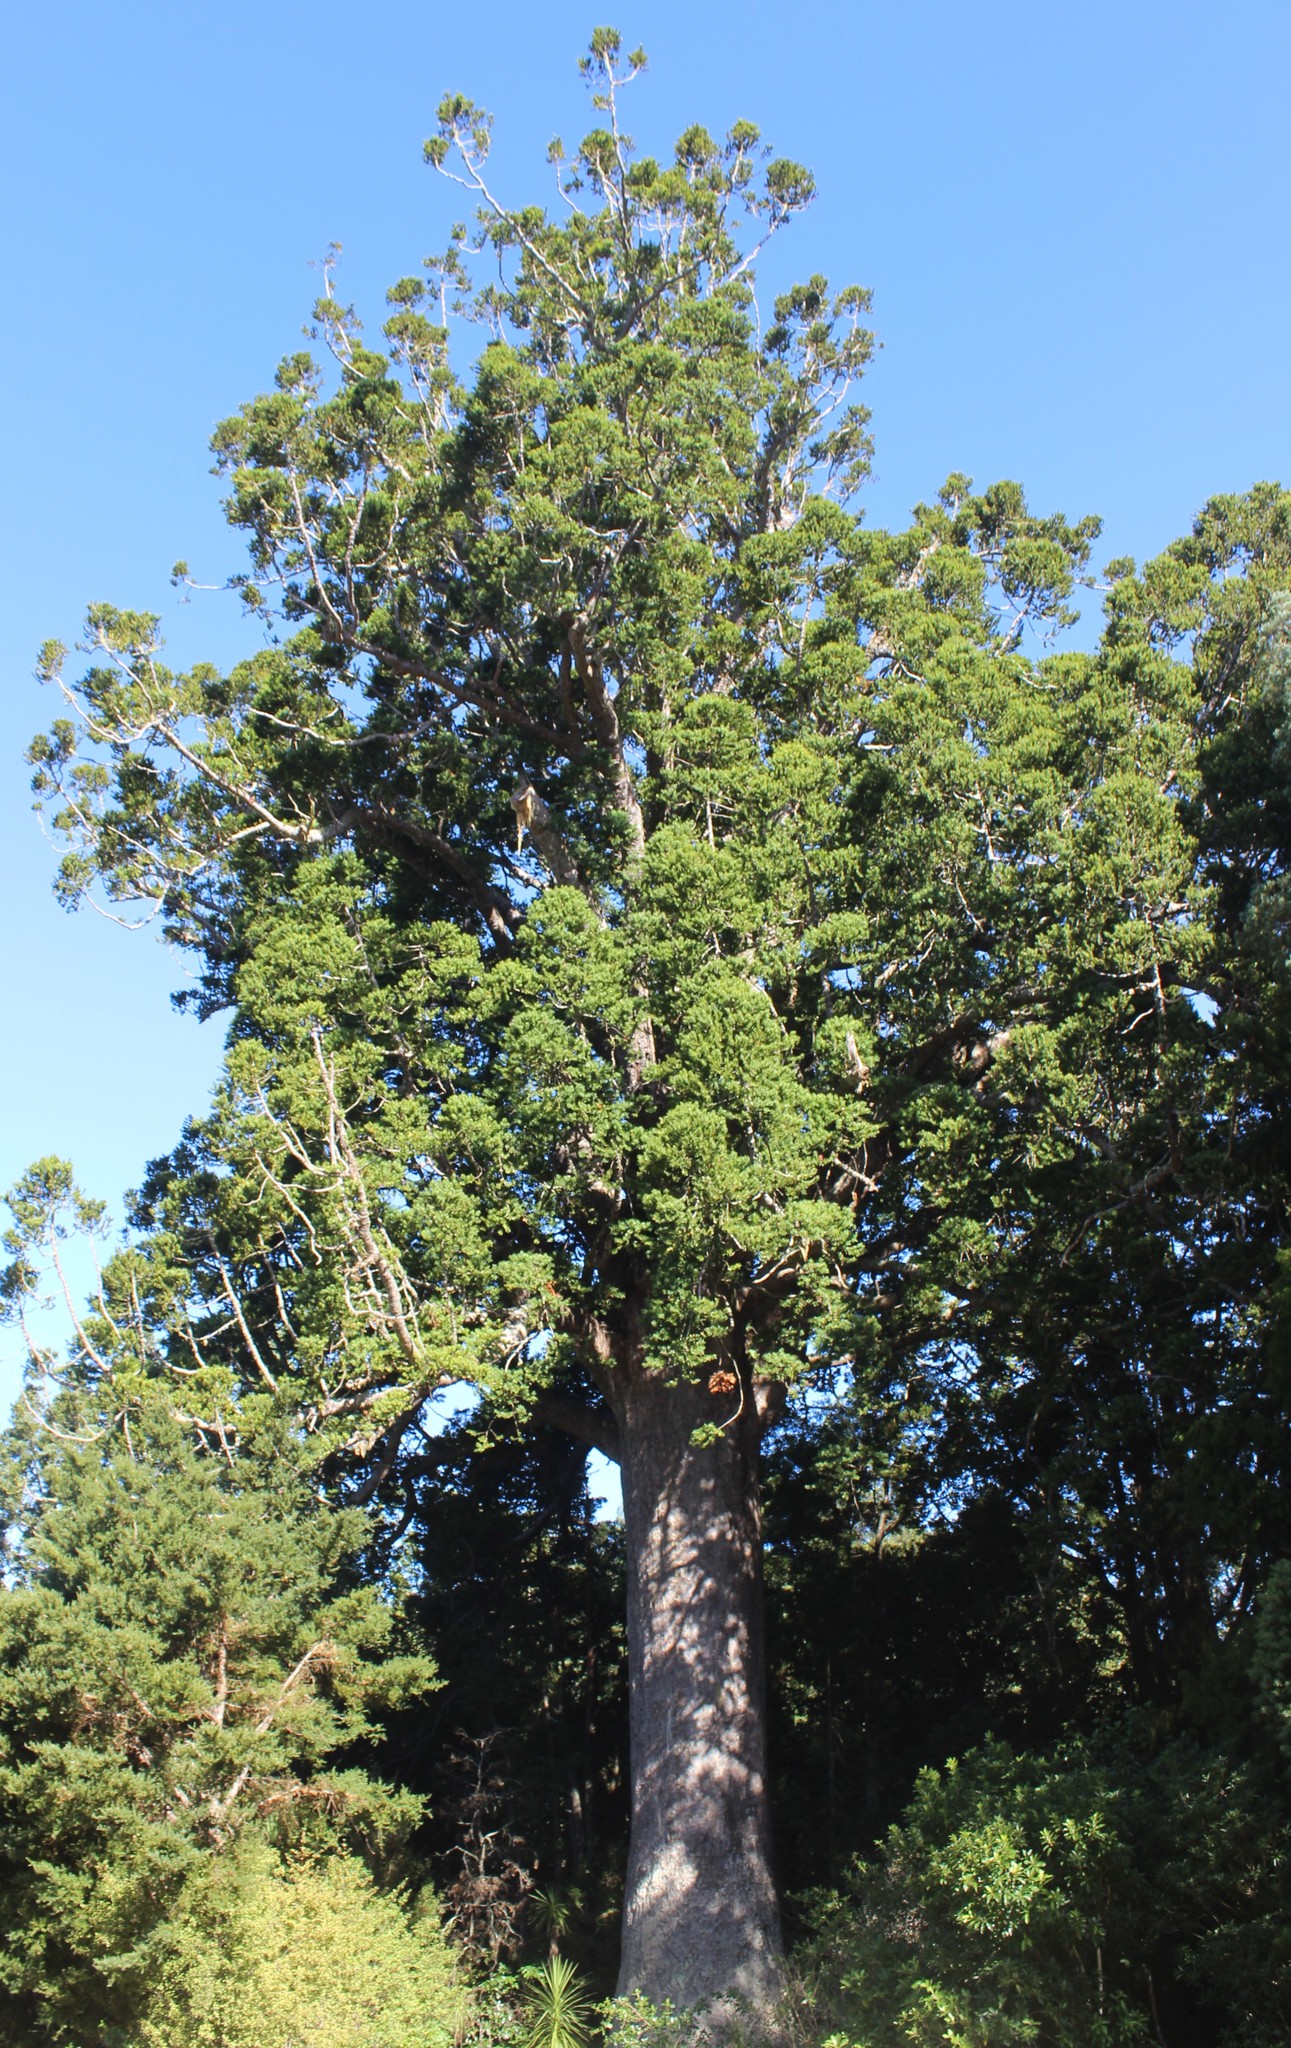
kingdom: Plantae
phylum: Tracheophyta
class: Pinopsida
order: Pinales
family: Araucariaceae
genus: Agathis
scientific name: Agathis australis
